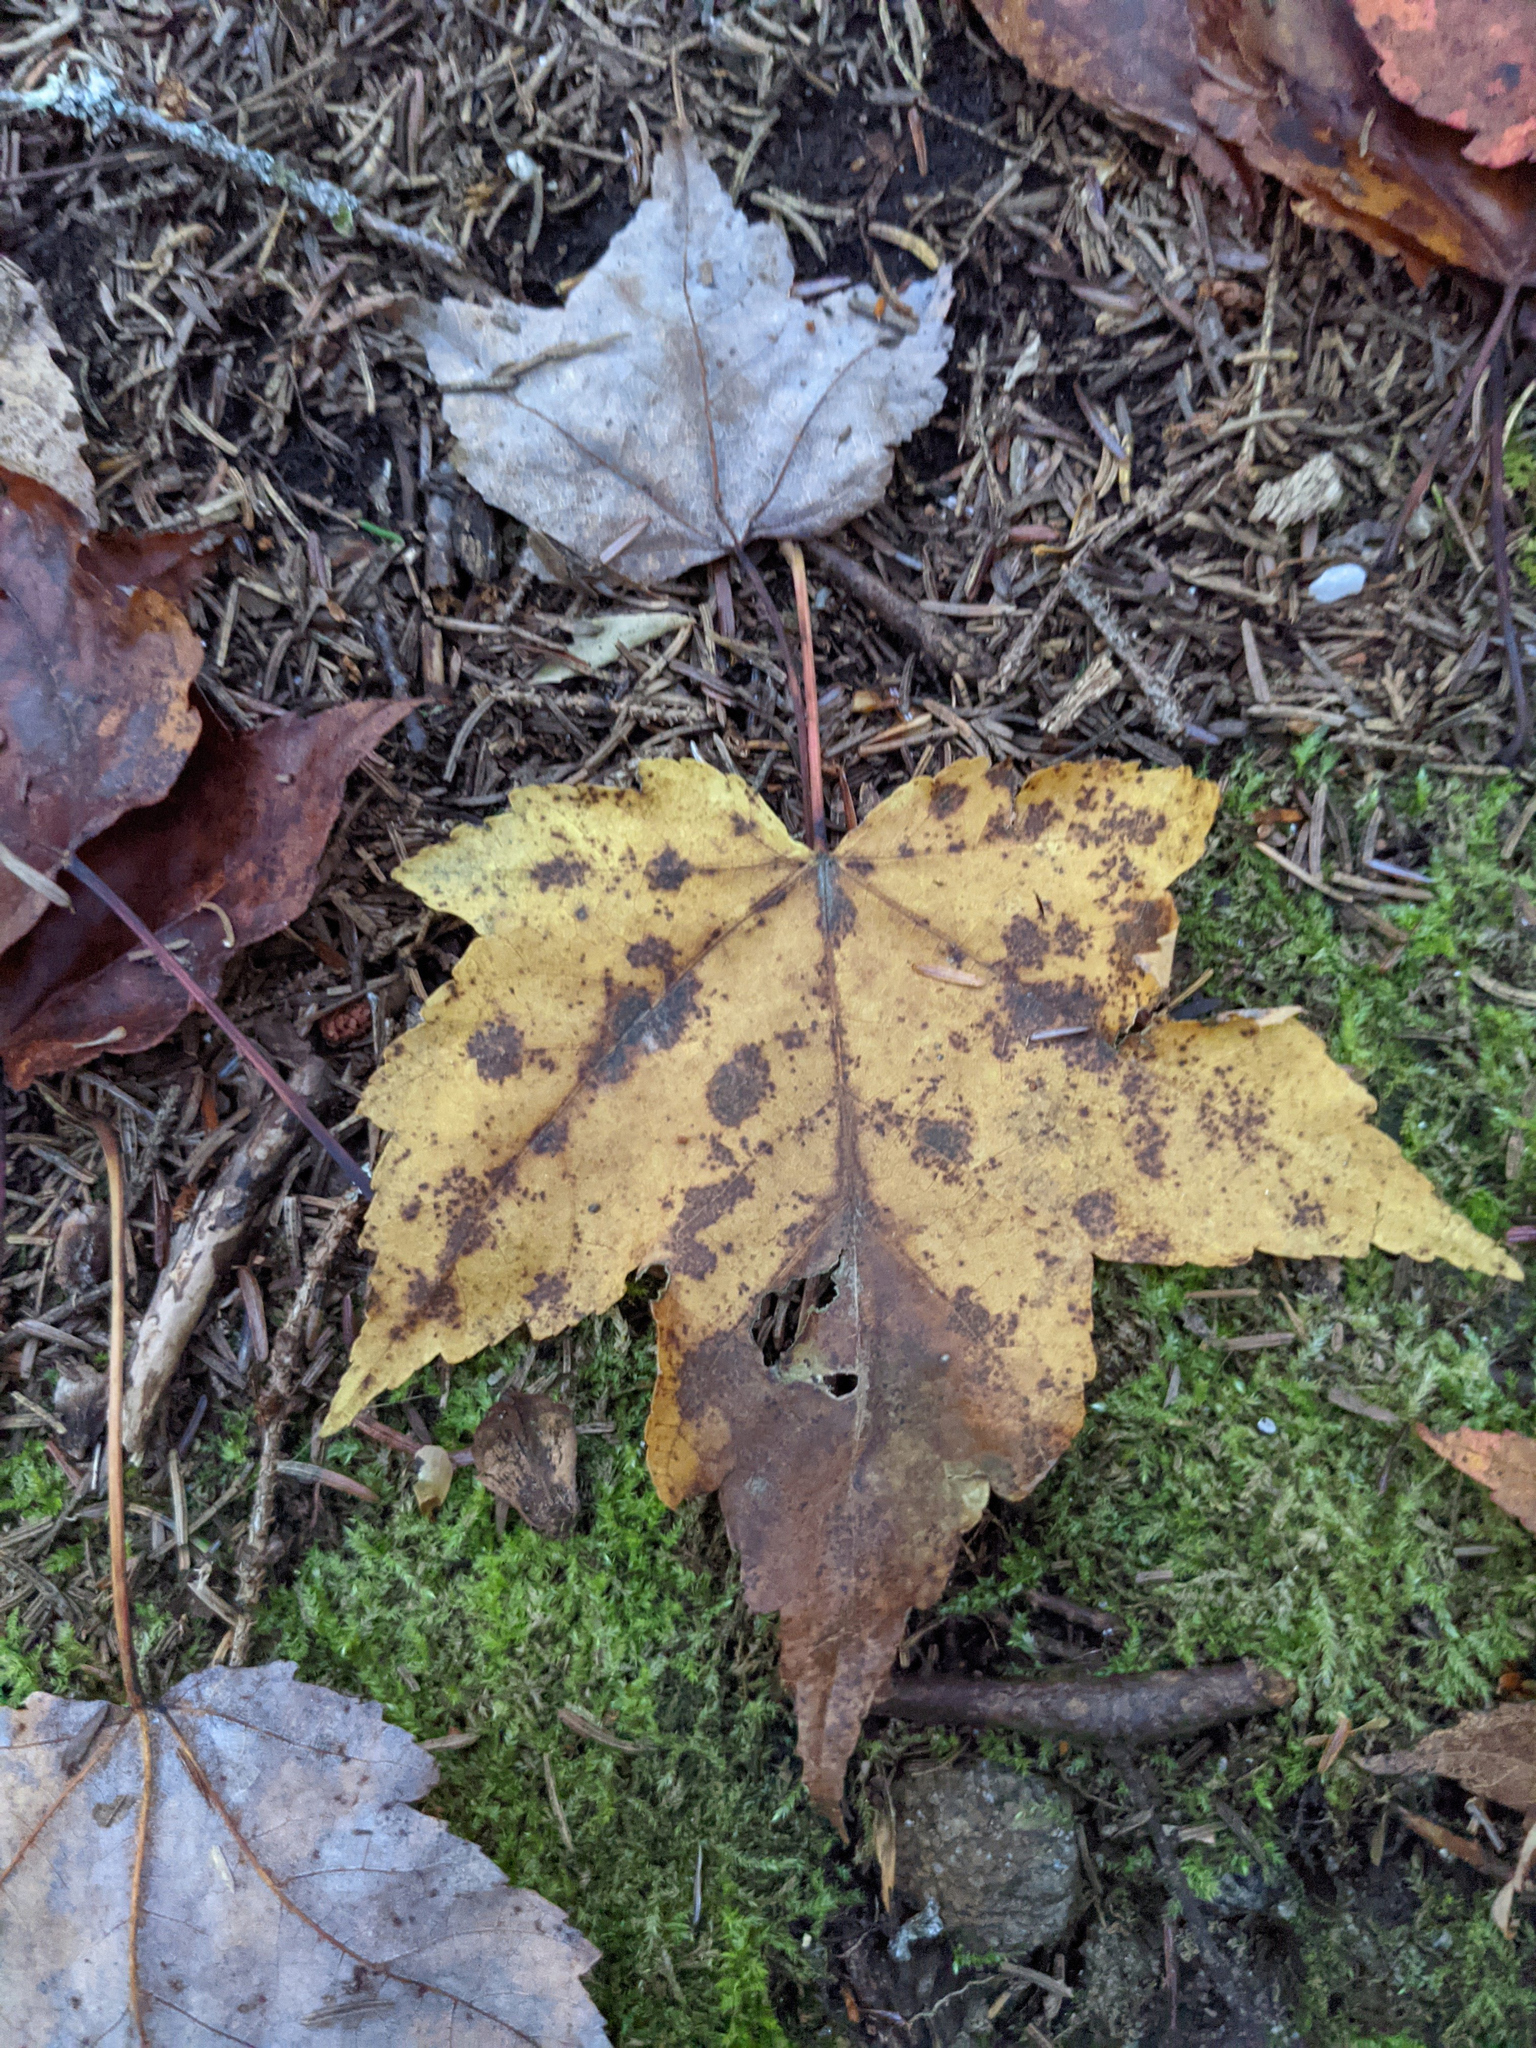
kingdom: Plantae
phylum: Tracheophyta
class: Magnoliopsida
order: Sapindales
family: Sapindaceae
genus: Acer
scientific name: Acer rubrum
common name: Red maple
